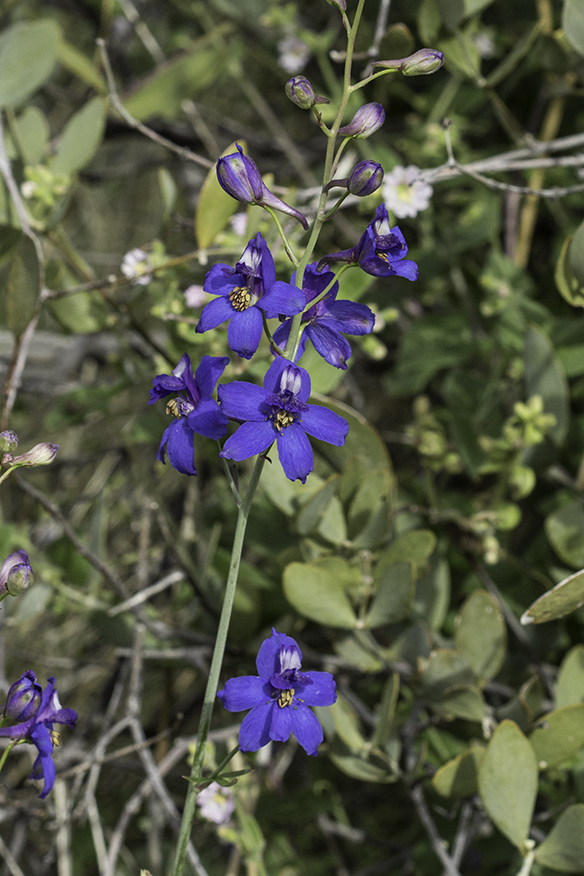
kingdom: Plantae
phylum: Tracheophyta
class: Magnoliopsida
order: Ranunculales
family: Ranunculaceae
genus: Delphinium
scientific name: Delphinium scaposum
